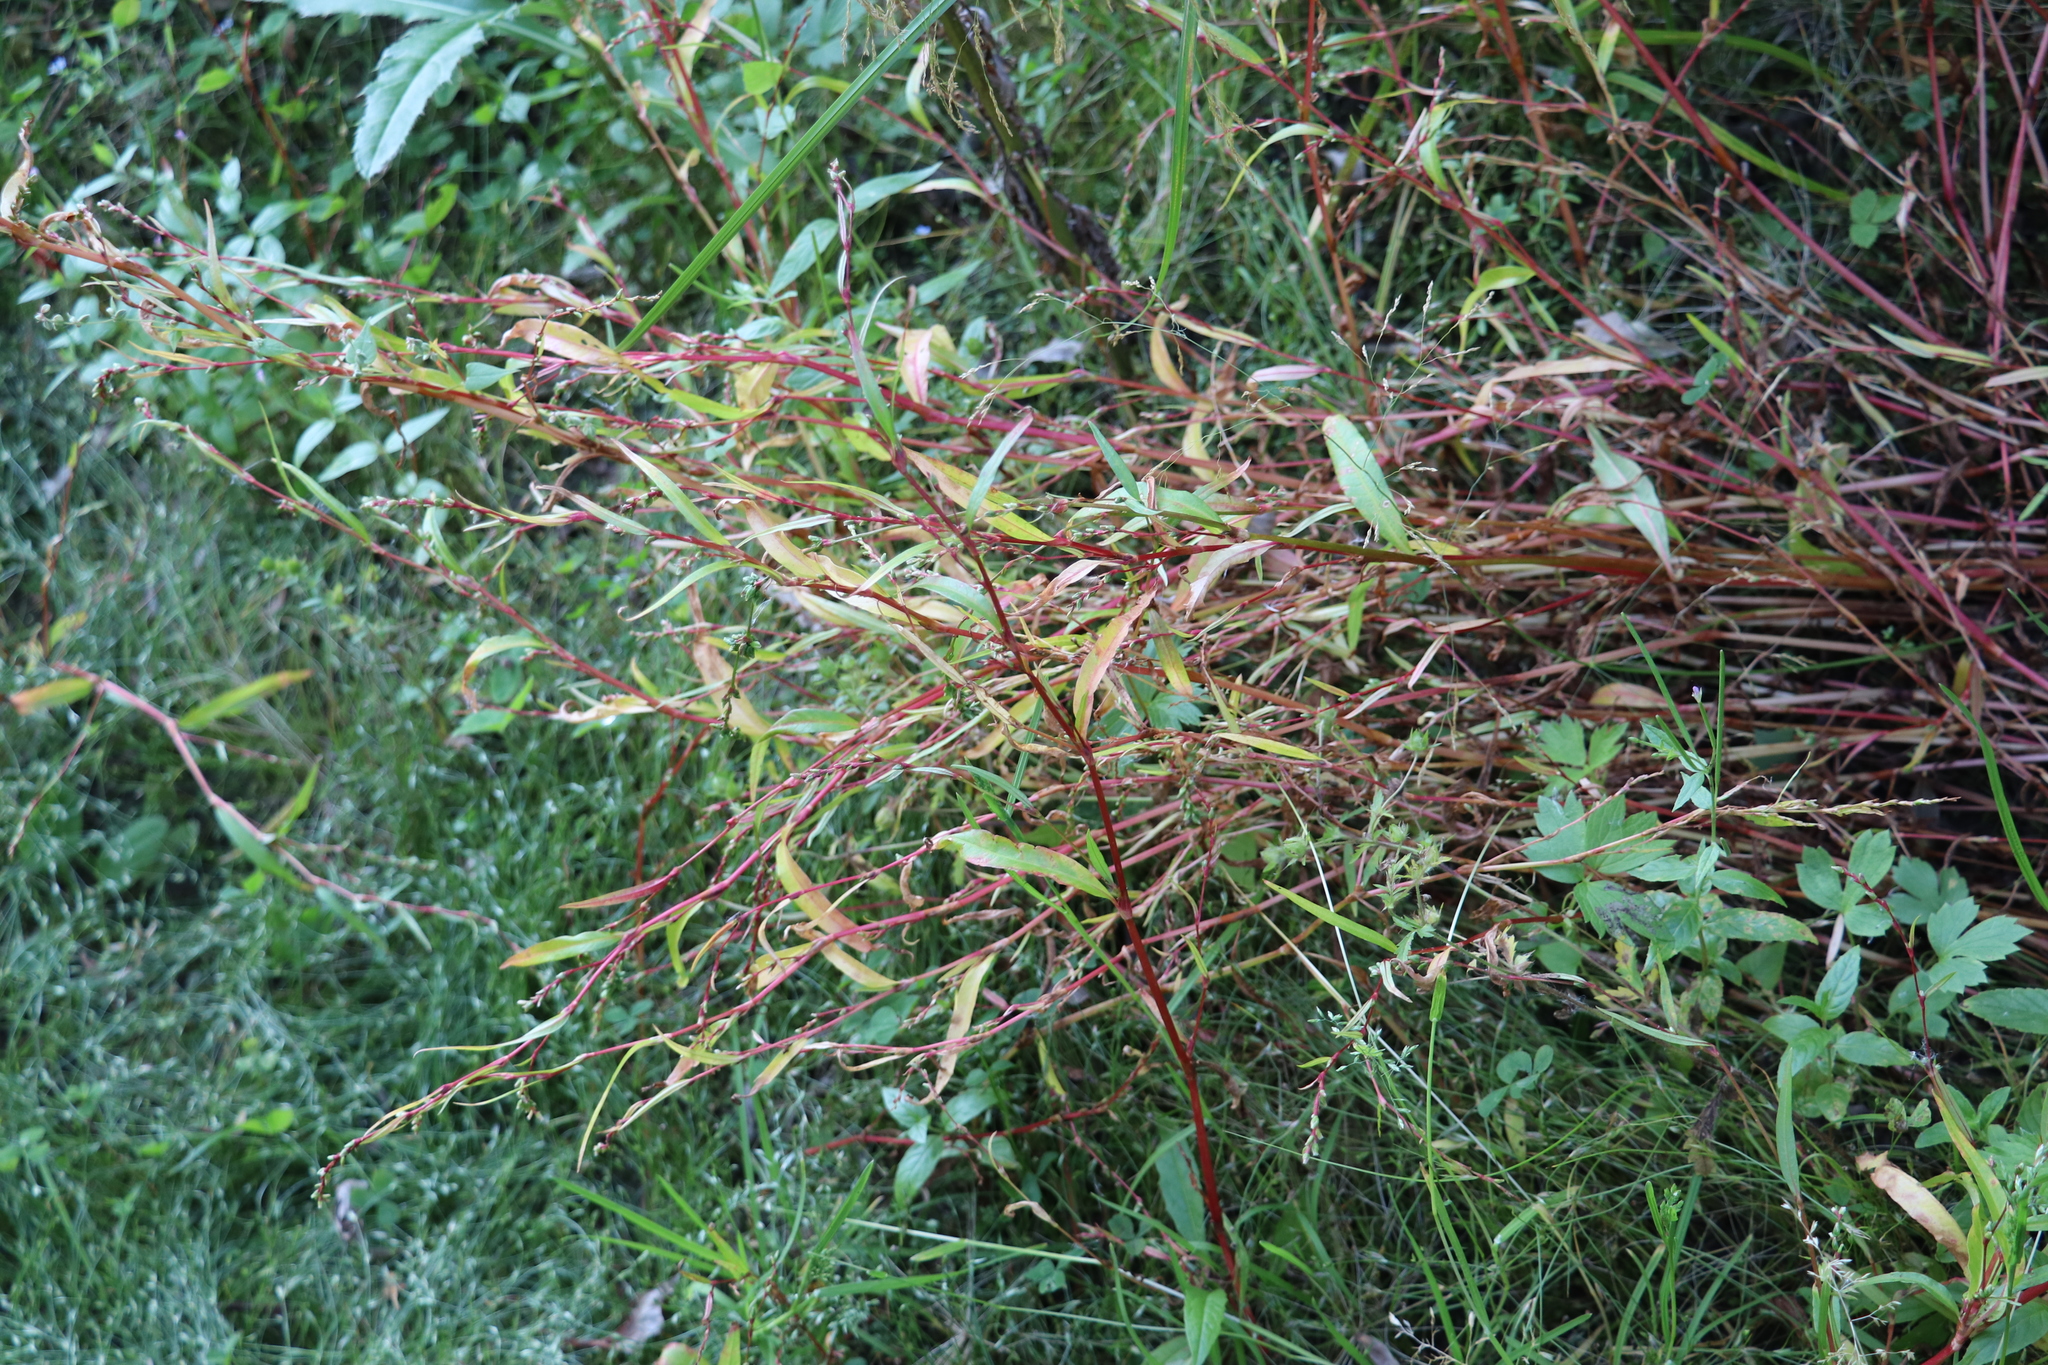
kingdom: Plantae
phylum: Tracheophyta
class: Magnoliopsida
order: Caryophyllales
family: Polygonaceae
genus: Persicaria
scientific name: Persicaria hydropiper
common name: Water-pepper
